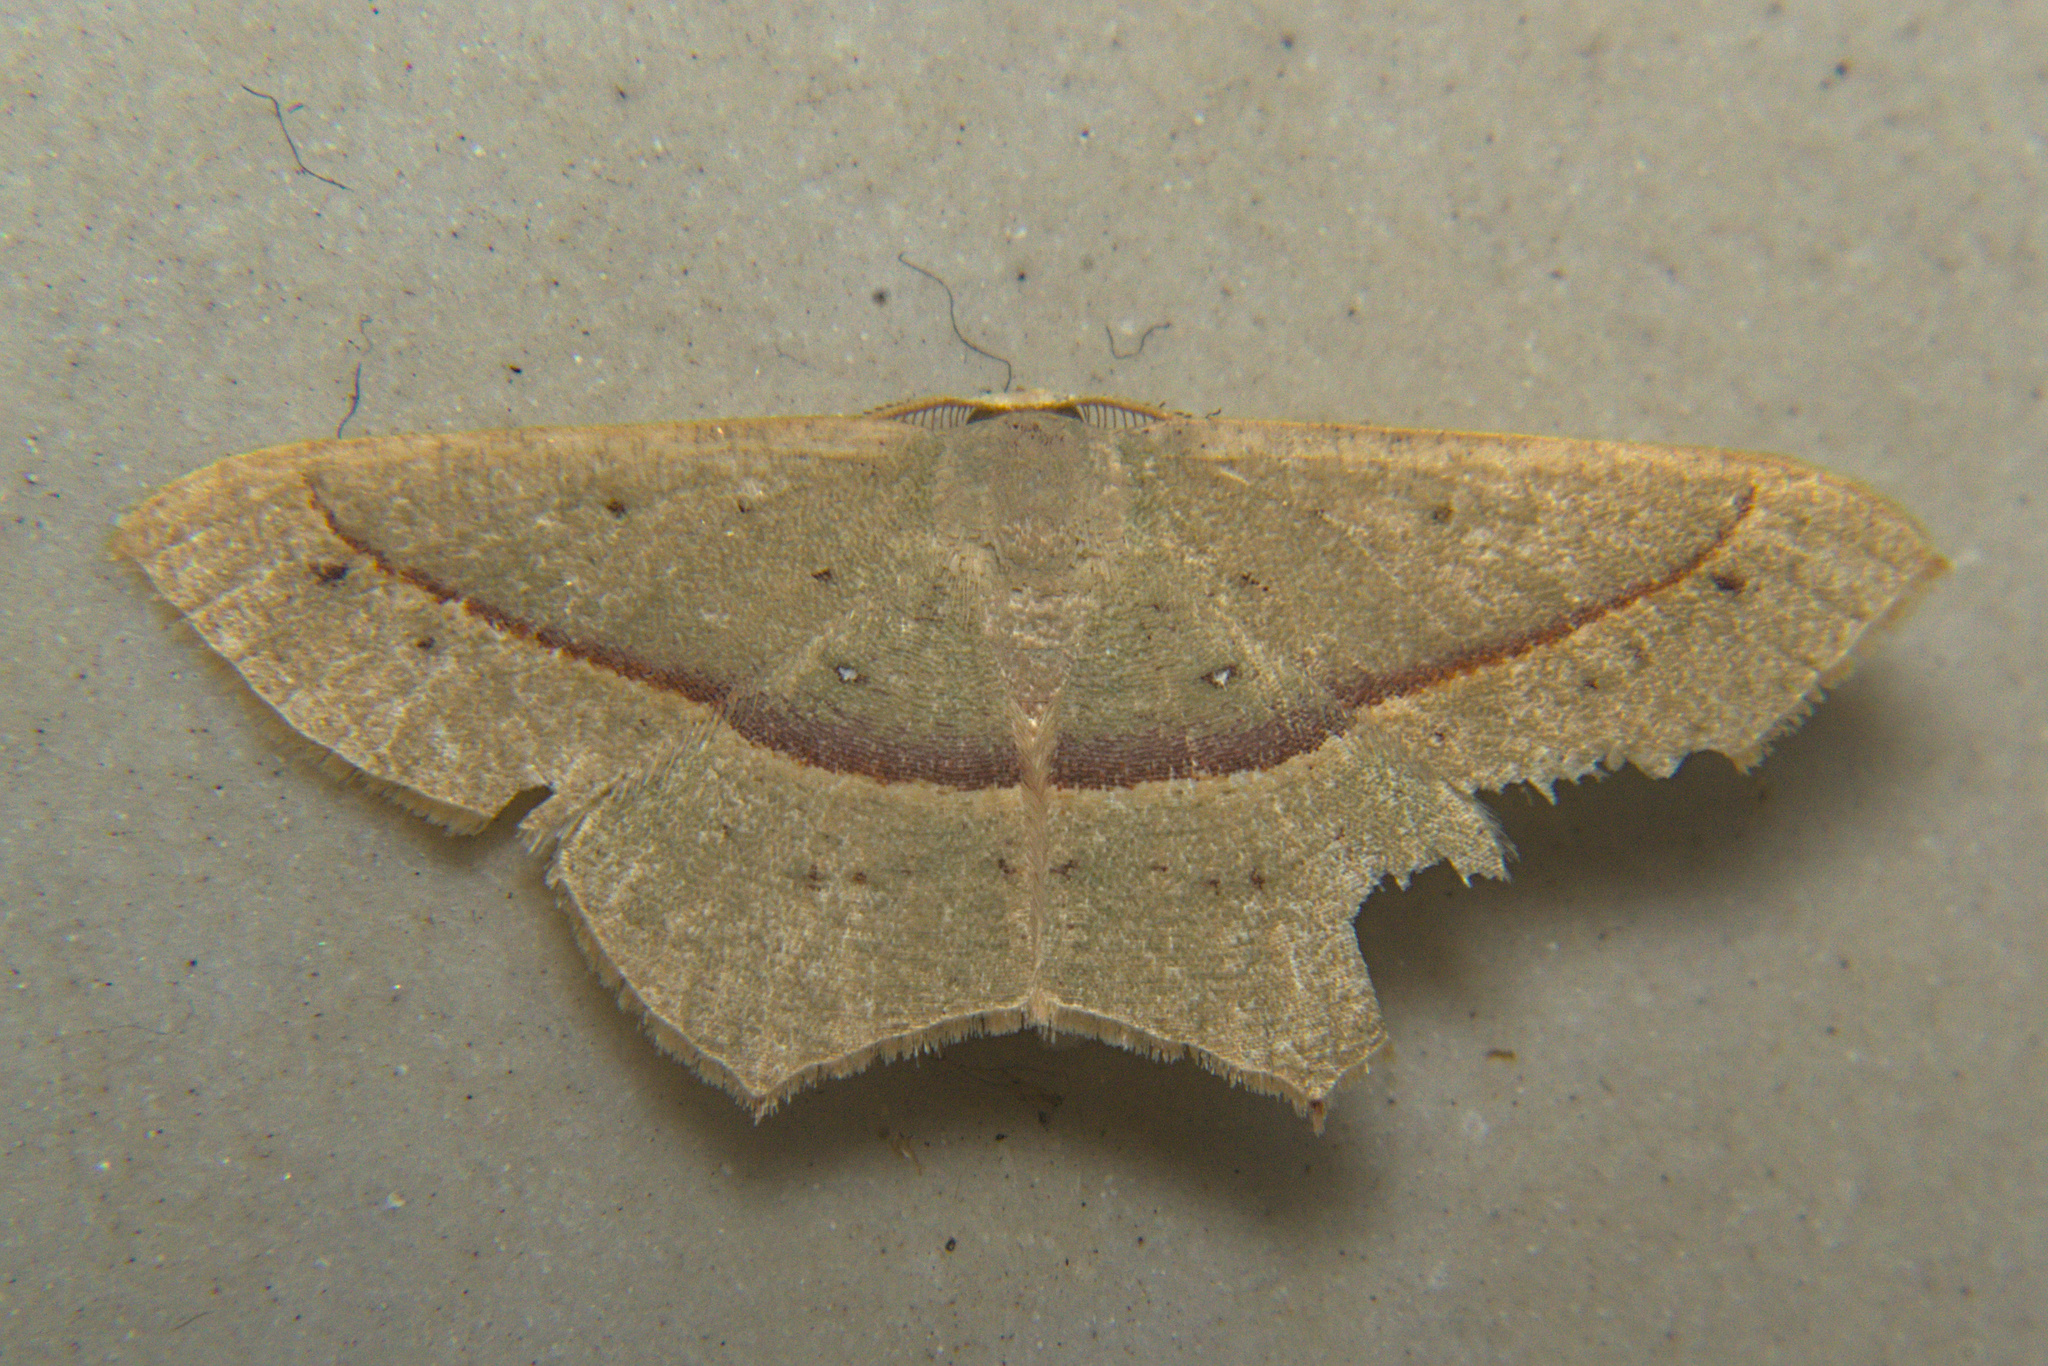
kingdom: Animalia
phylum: Arthropoda
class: Insecta
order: Lepidoptera
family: Geometridae
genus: Traminda
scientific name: Traminda mundissima
